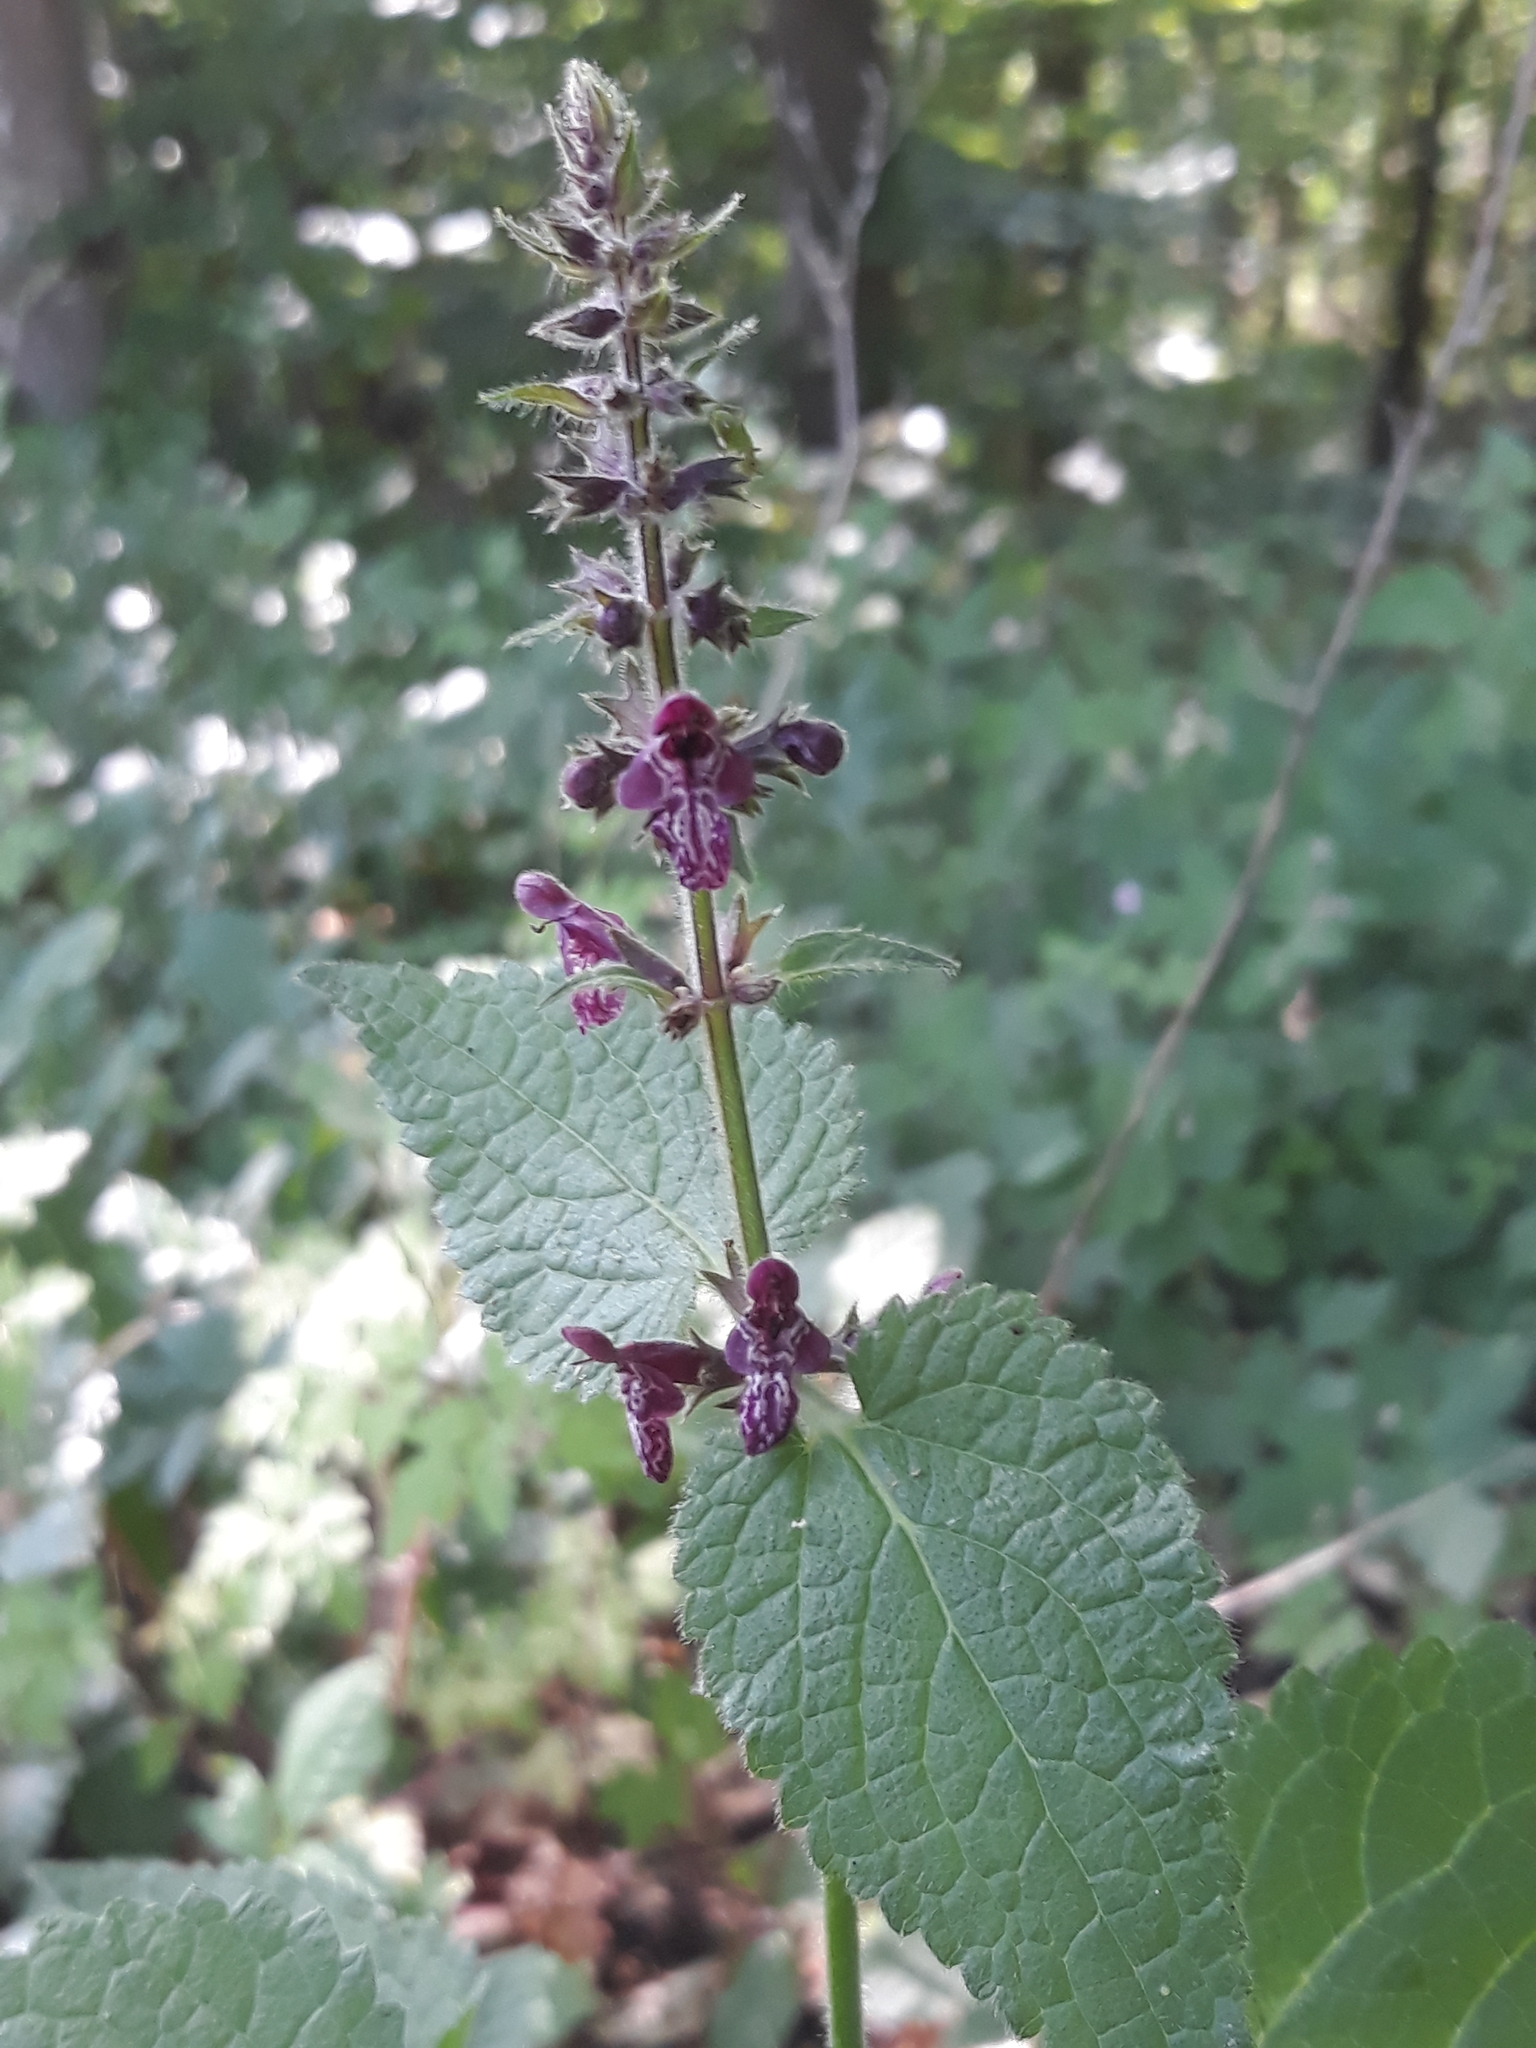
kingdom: Plantae
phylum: Tracheophyta
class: Magnoliopsida
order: Lamiales
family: Lamiaceae
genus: Stachys
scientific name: Stachys sylvatica
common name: Hedge woundwort
